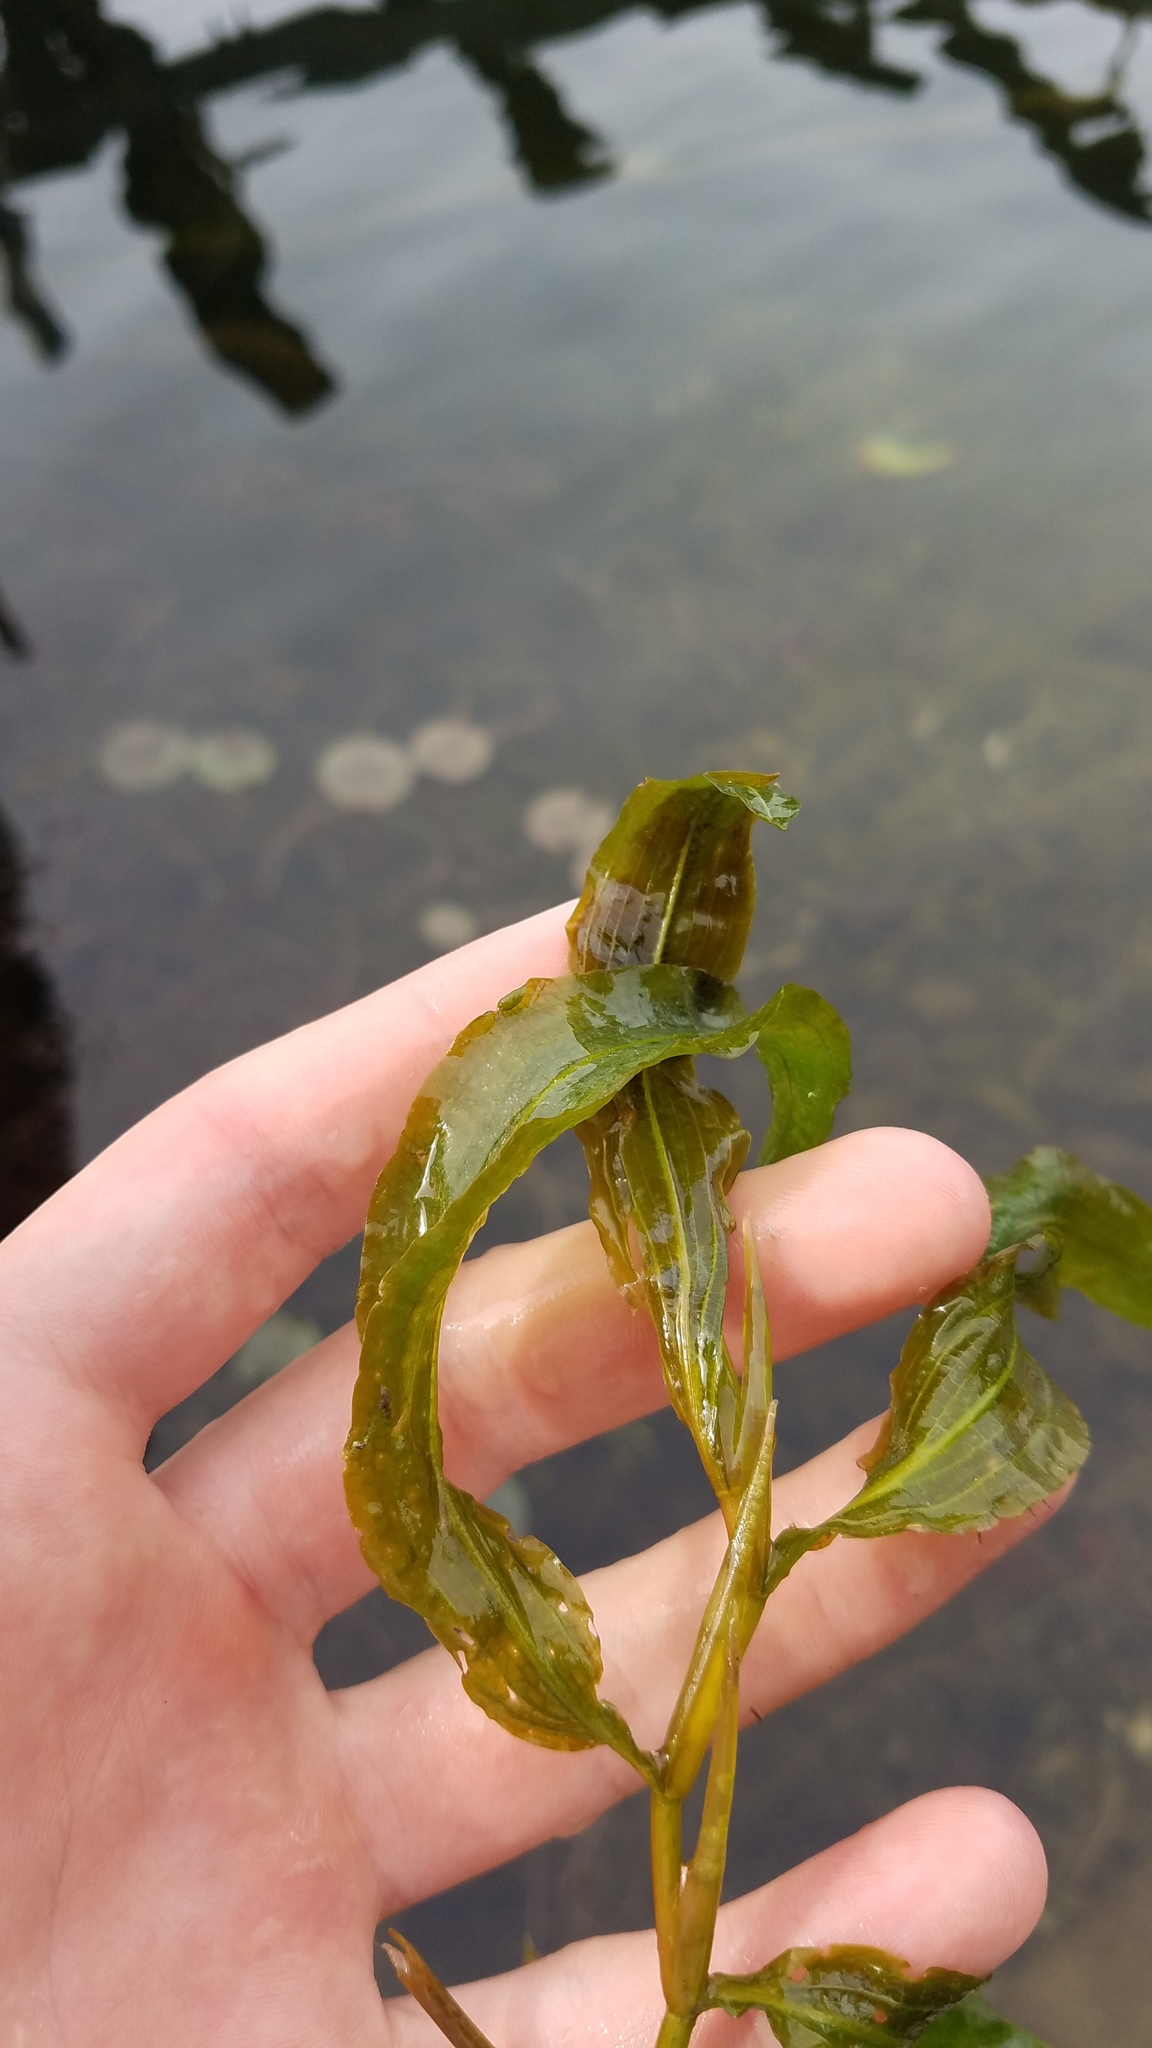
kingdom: Plantae
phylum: Tracheophyta
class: Liliopsida
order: Alismatales
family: Potamogetonaceae
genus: Potamogeton
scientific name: Potamogeton illinoensis
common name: Illinois pondweed
